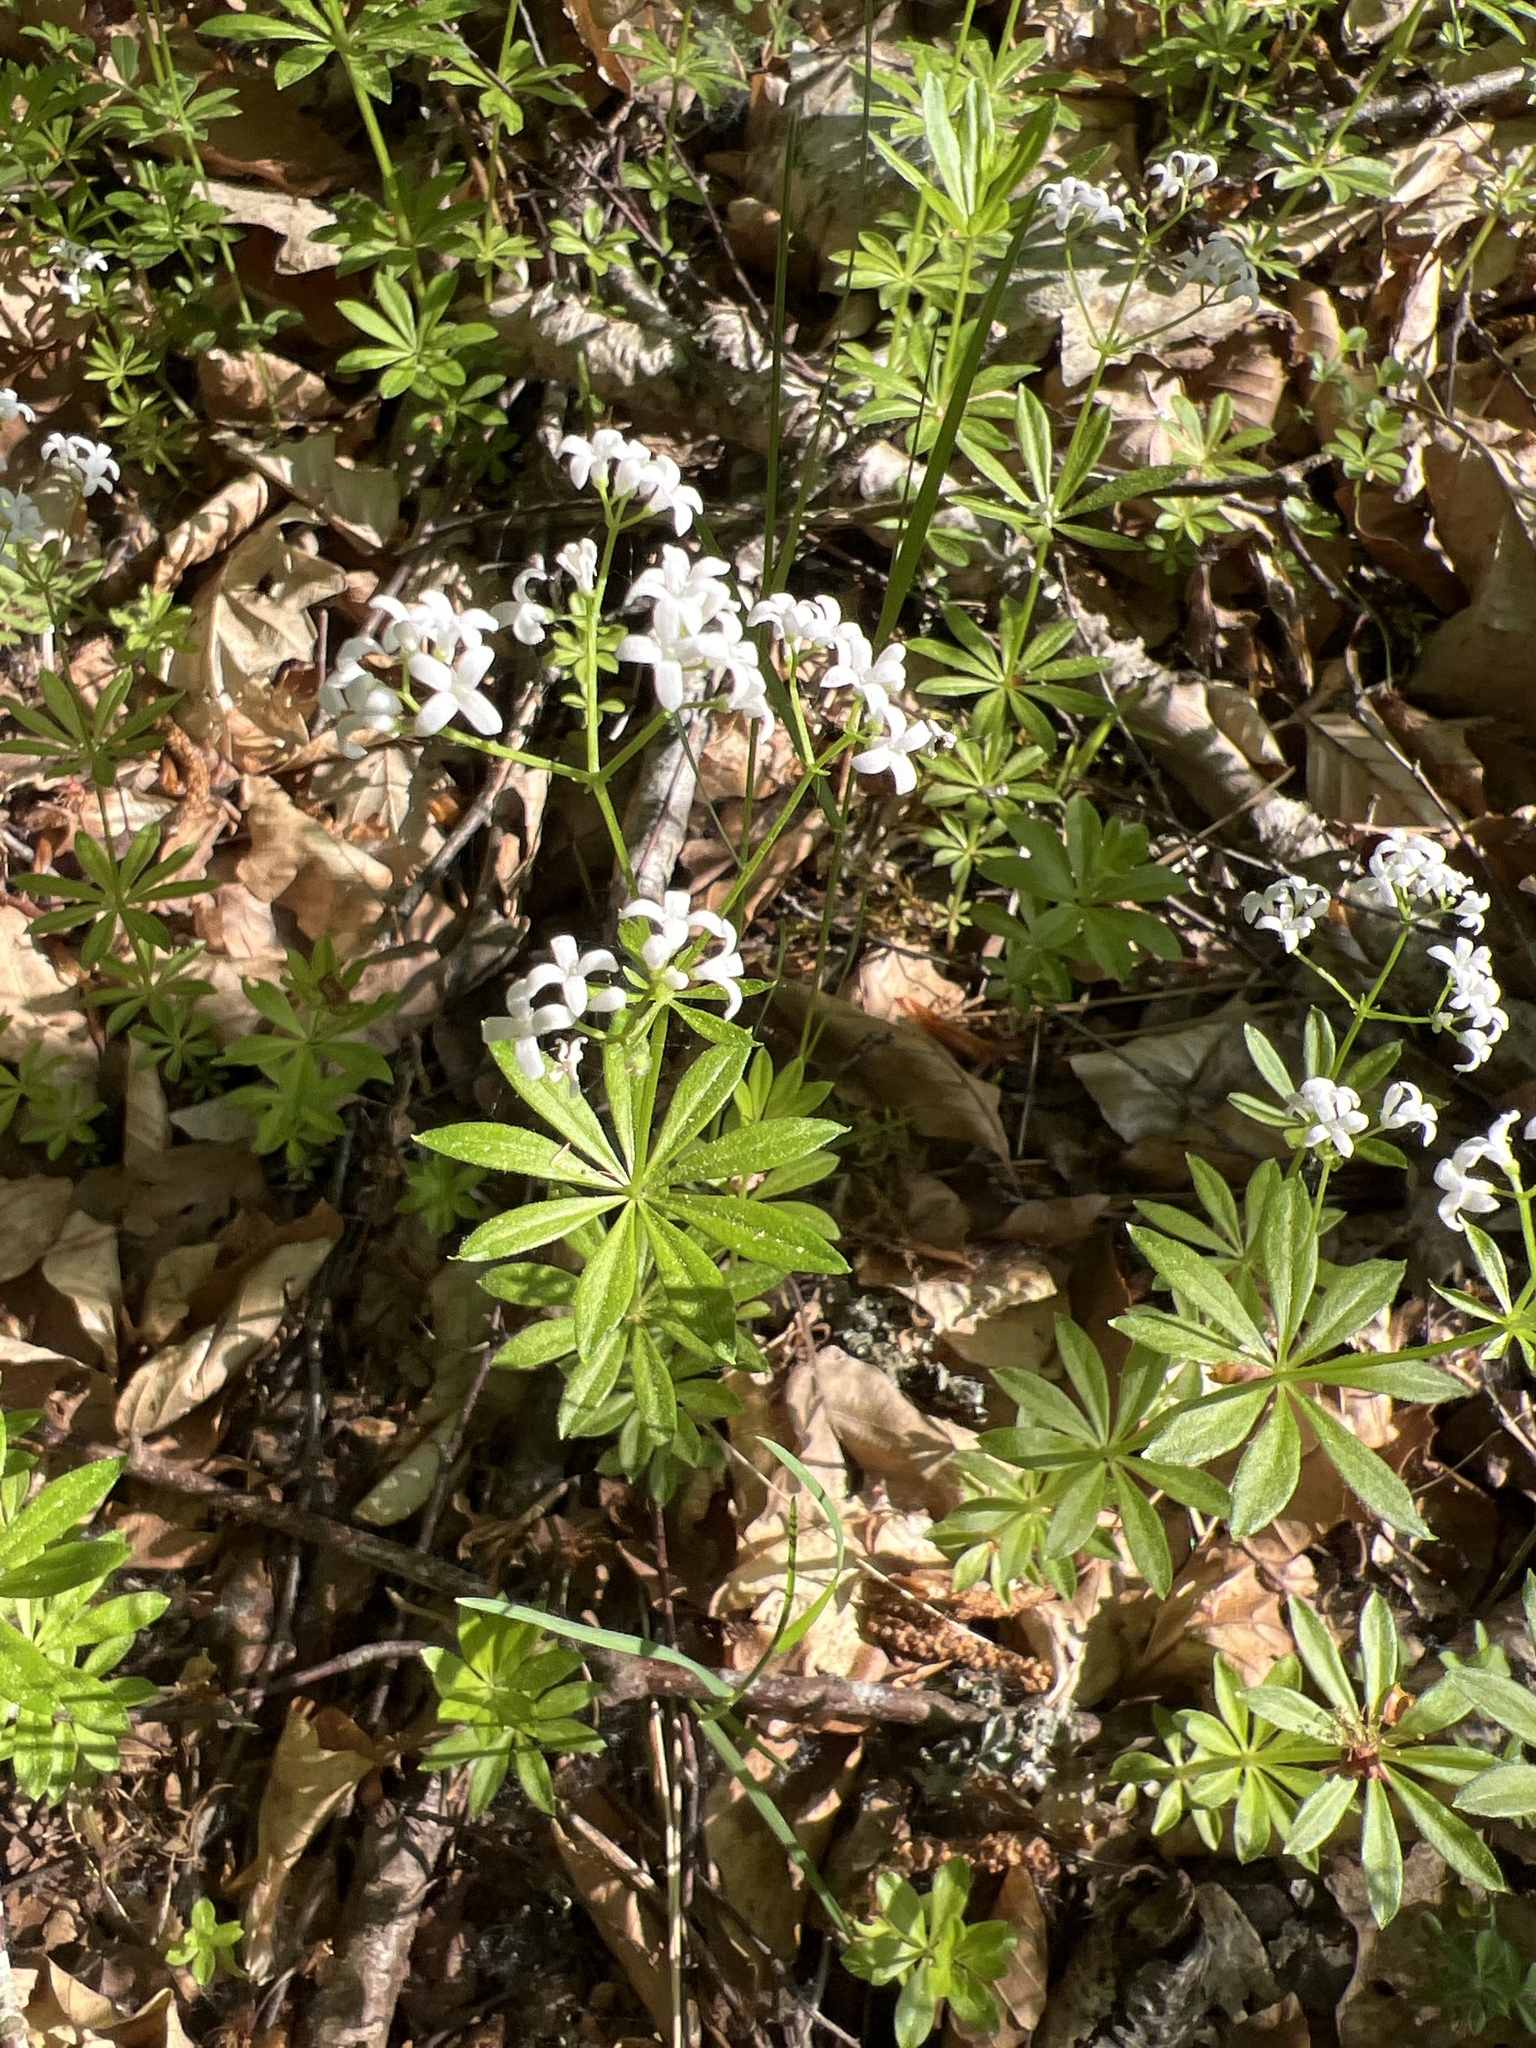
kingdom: Plantae
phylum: Tracheophyta
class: Magnoliopsida
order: Gentianales
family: Rubiaceae
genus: Galium
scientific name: Galium odoratum
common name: Sweet woodruff
